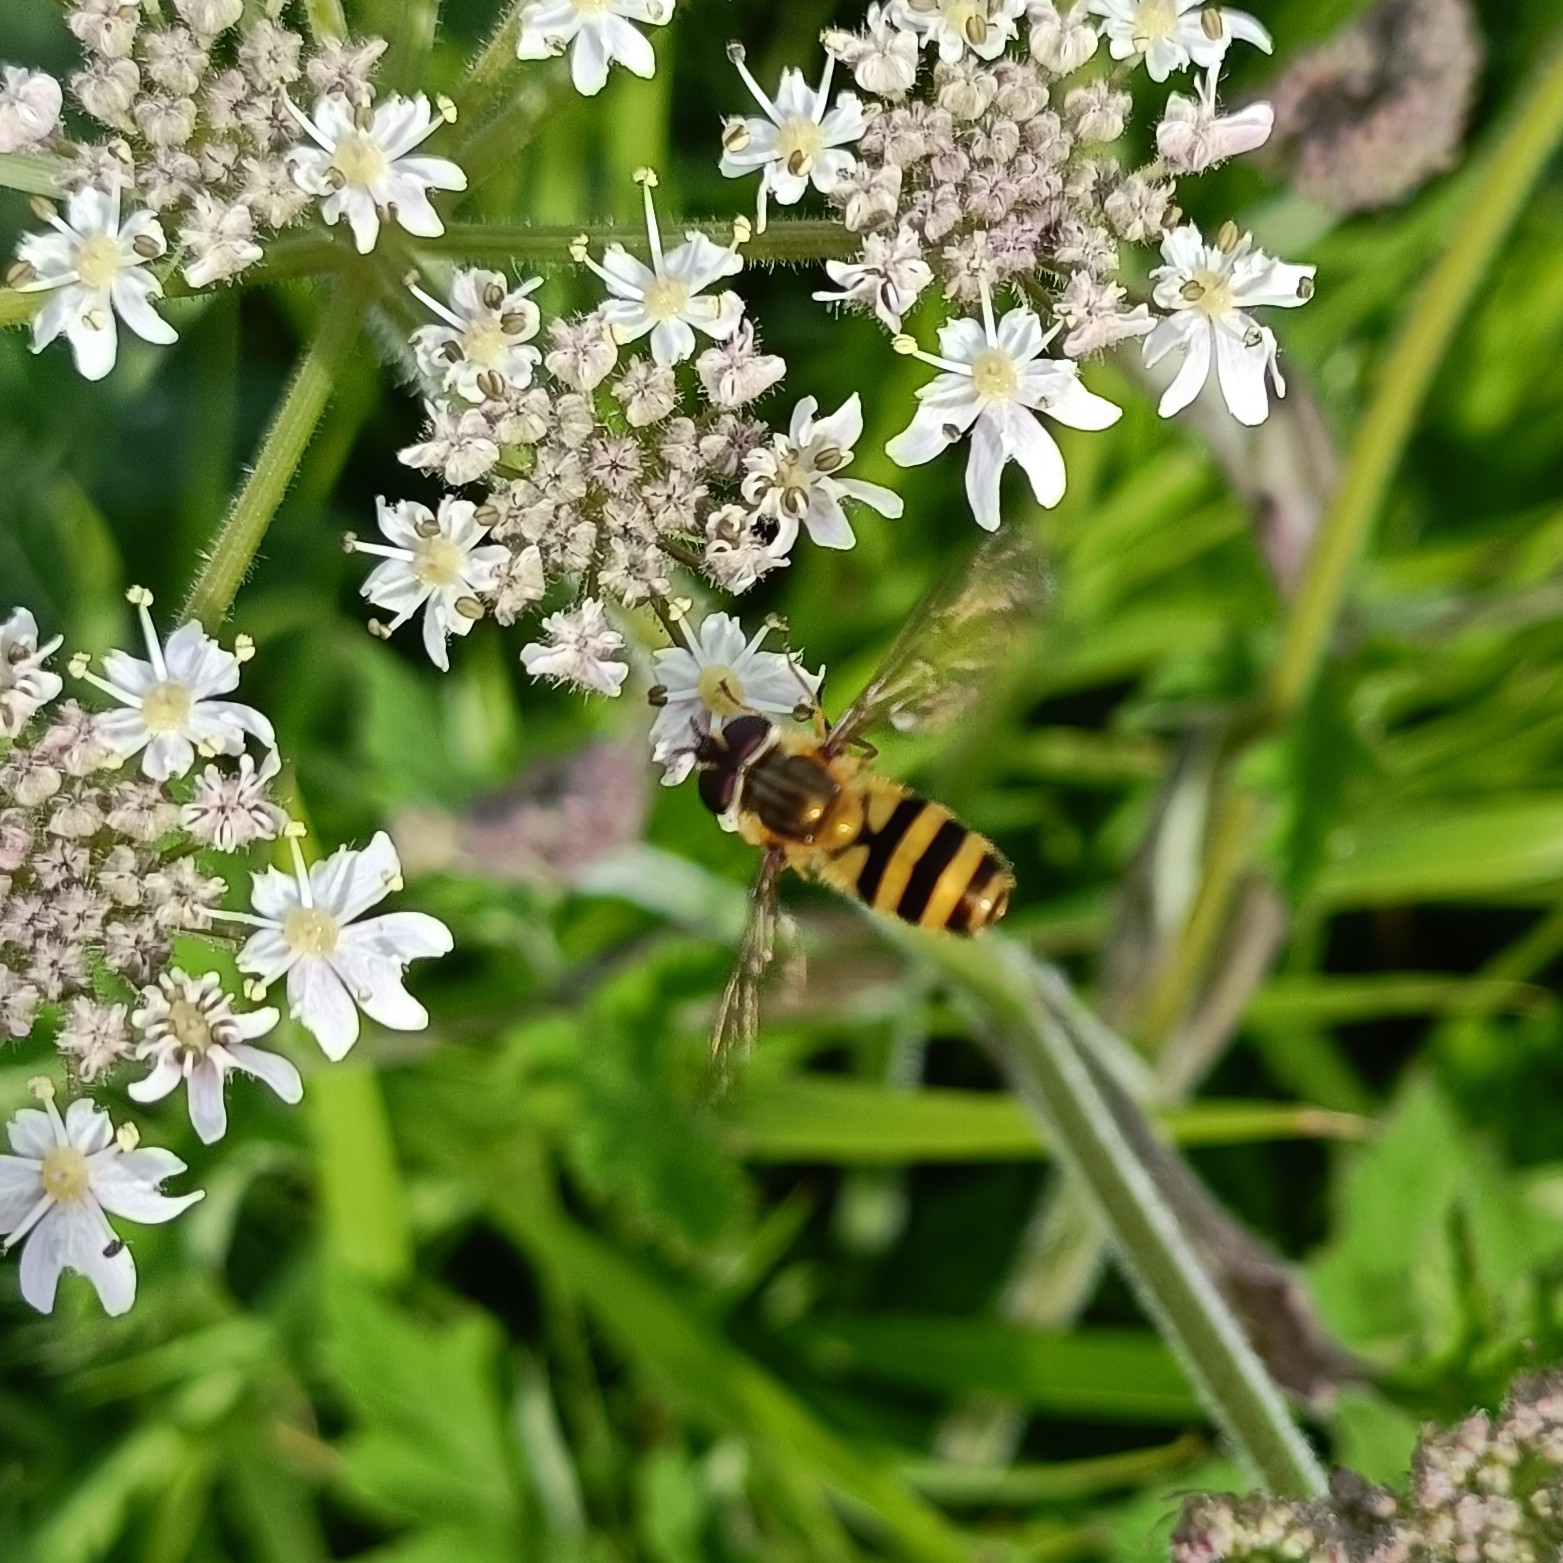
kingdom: Animalia
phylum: Arthropoda
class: Insecta
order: Diptera
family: Syrphidae
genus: Epistrophe
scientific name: Epistrophe grossulariae
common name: Black-horned smoothtail
